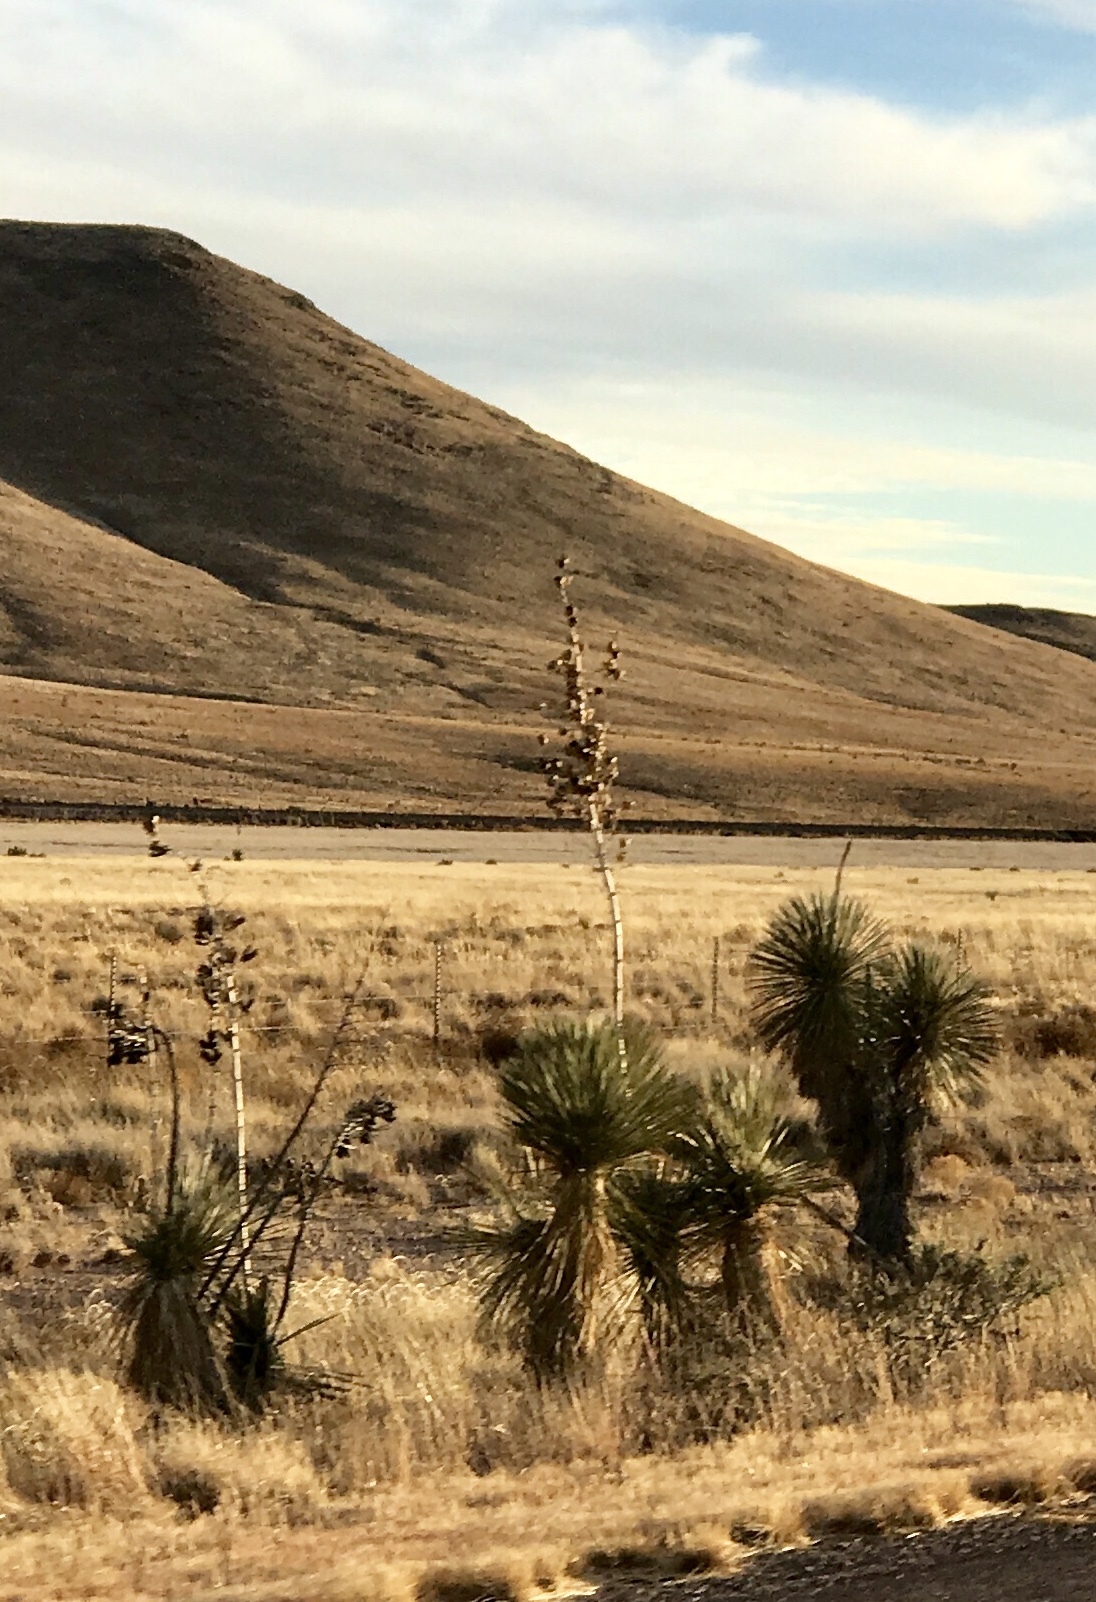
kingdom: Plantae
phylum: Tracheophyta
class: Liliopsida
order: Asparagales
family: Asparagaceae
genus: Yucca
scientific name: Yucca elata
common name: Palmella
